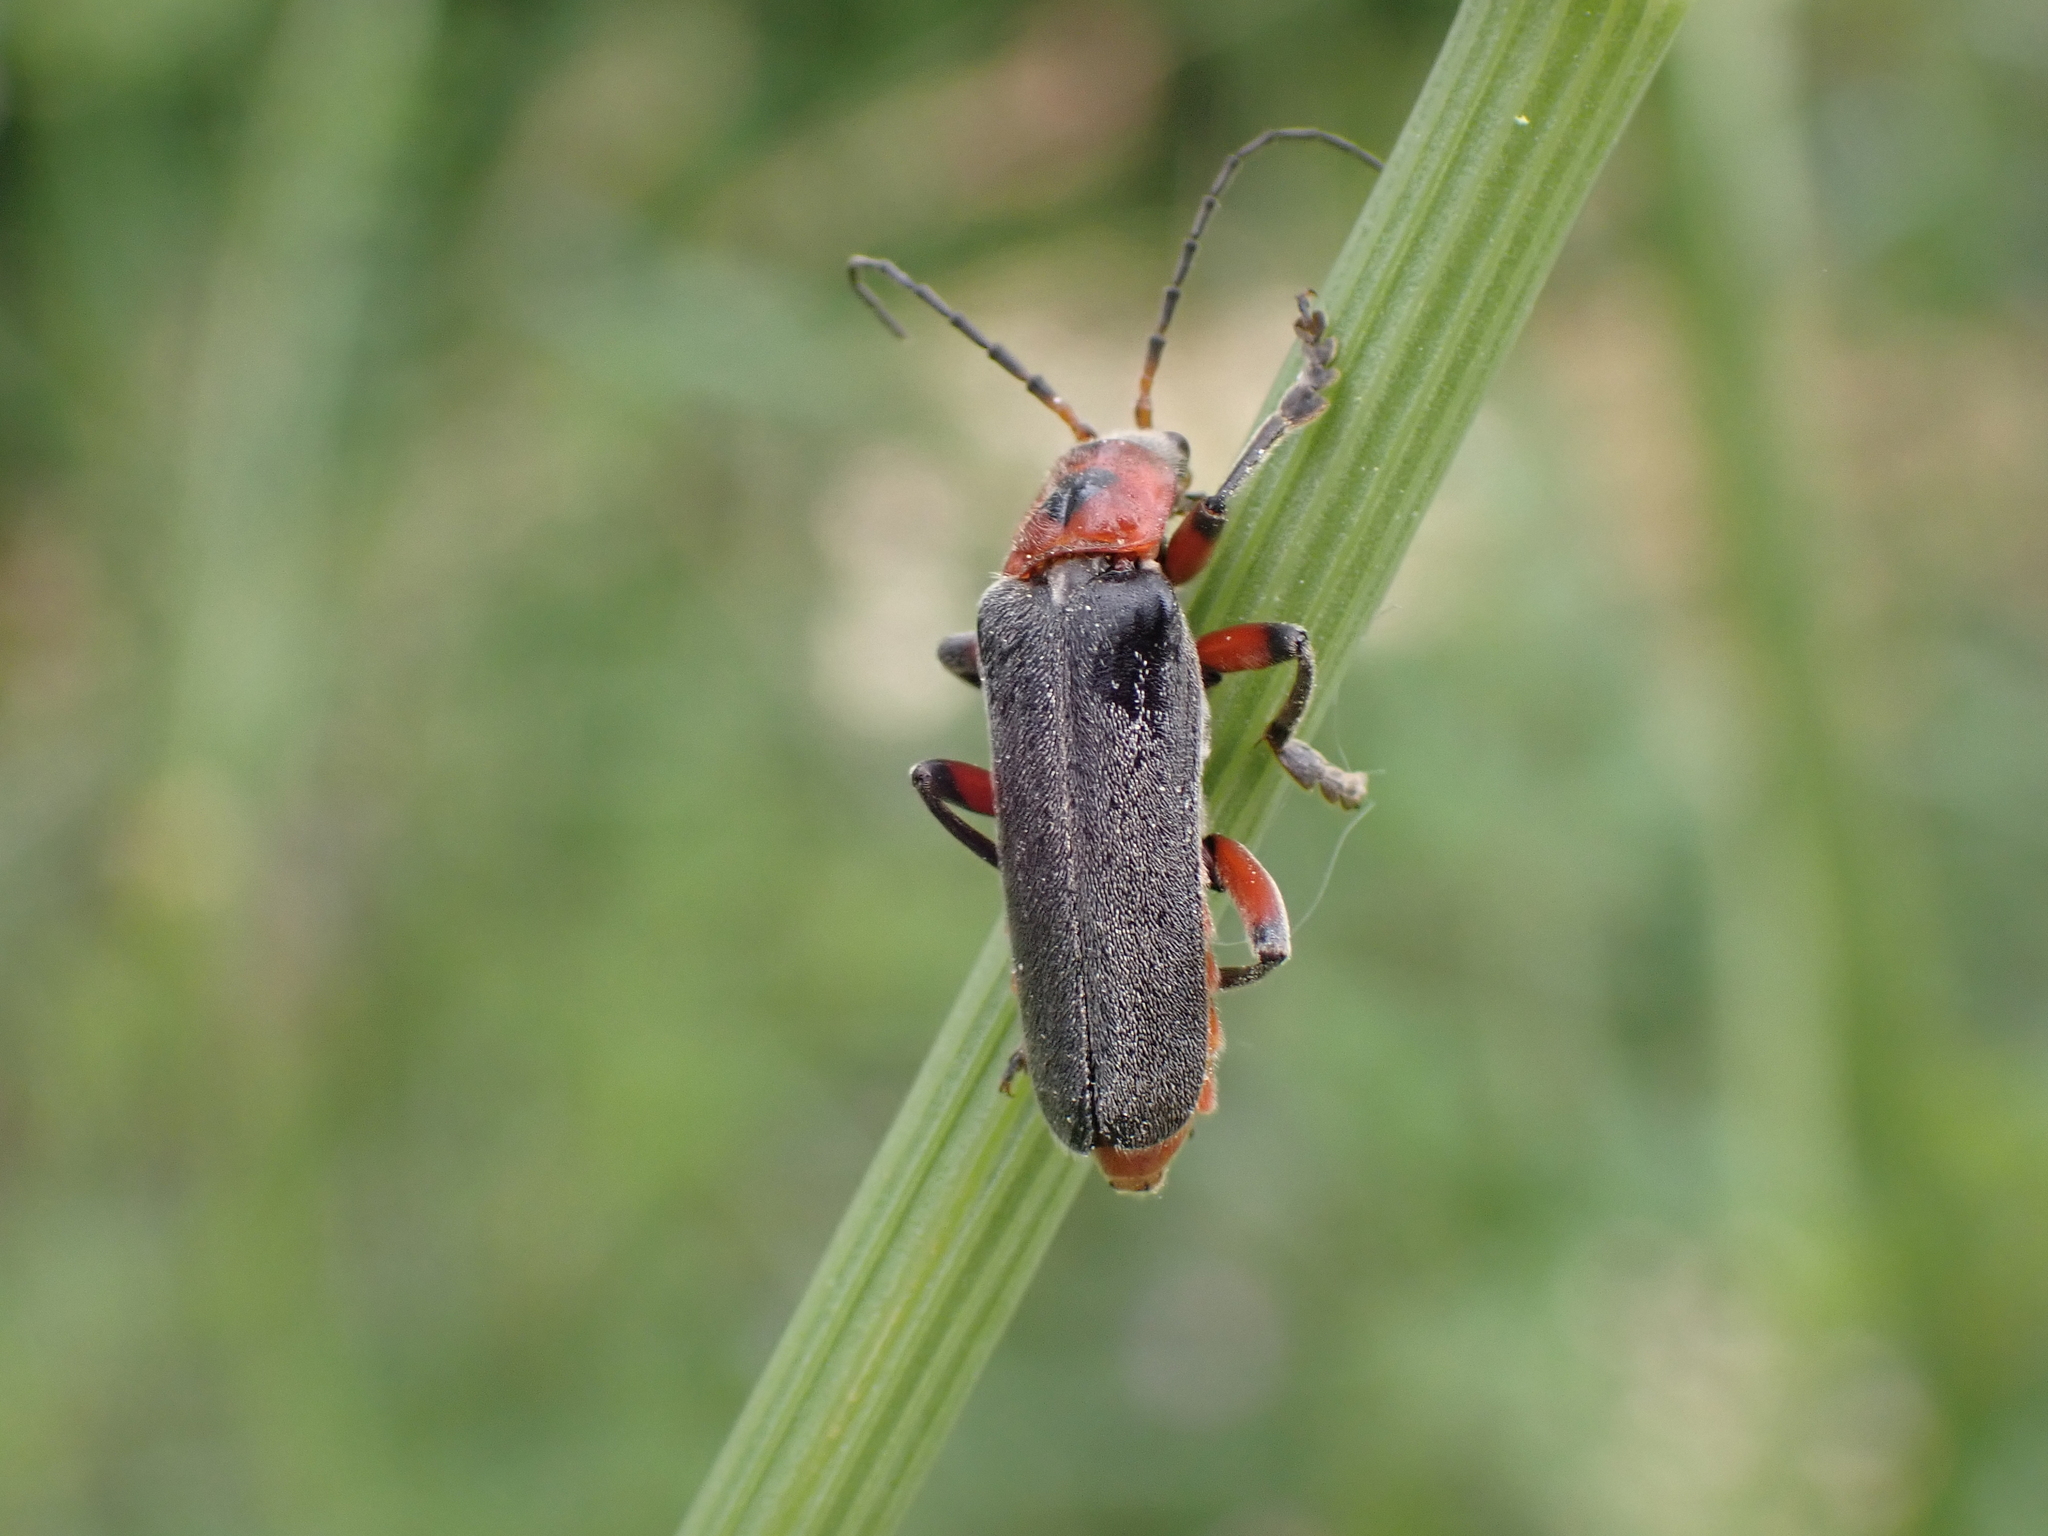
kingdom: Animalia
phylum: Arthropoda
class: Insecta
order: Coleoptera
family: Cantharidae
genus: Cantharis
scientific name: Cantharis rustica
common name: Soldier beetle
